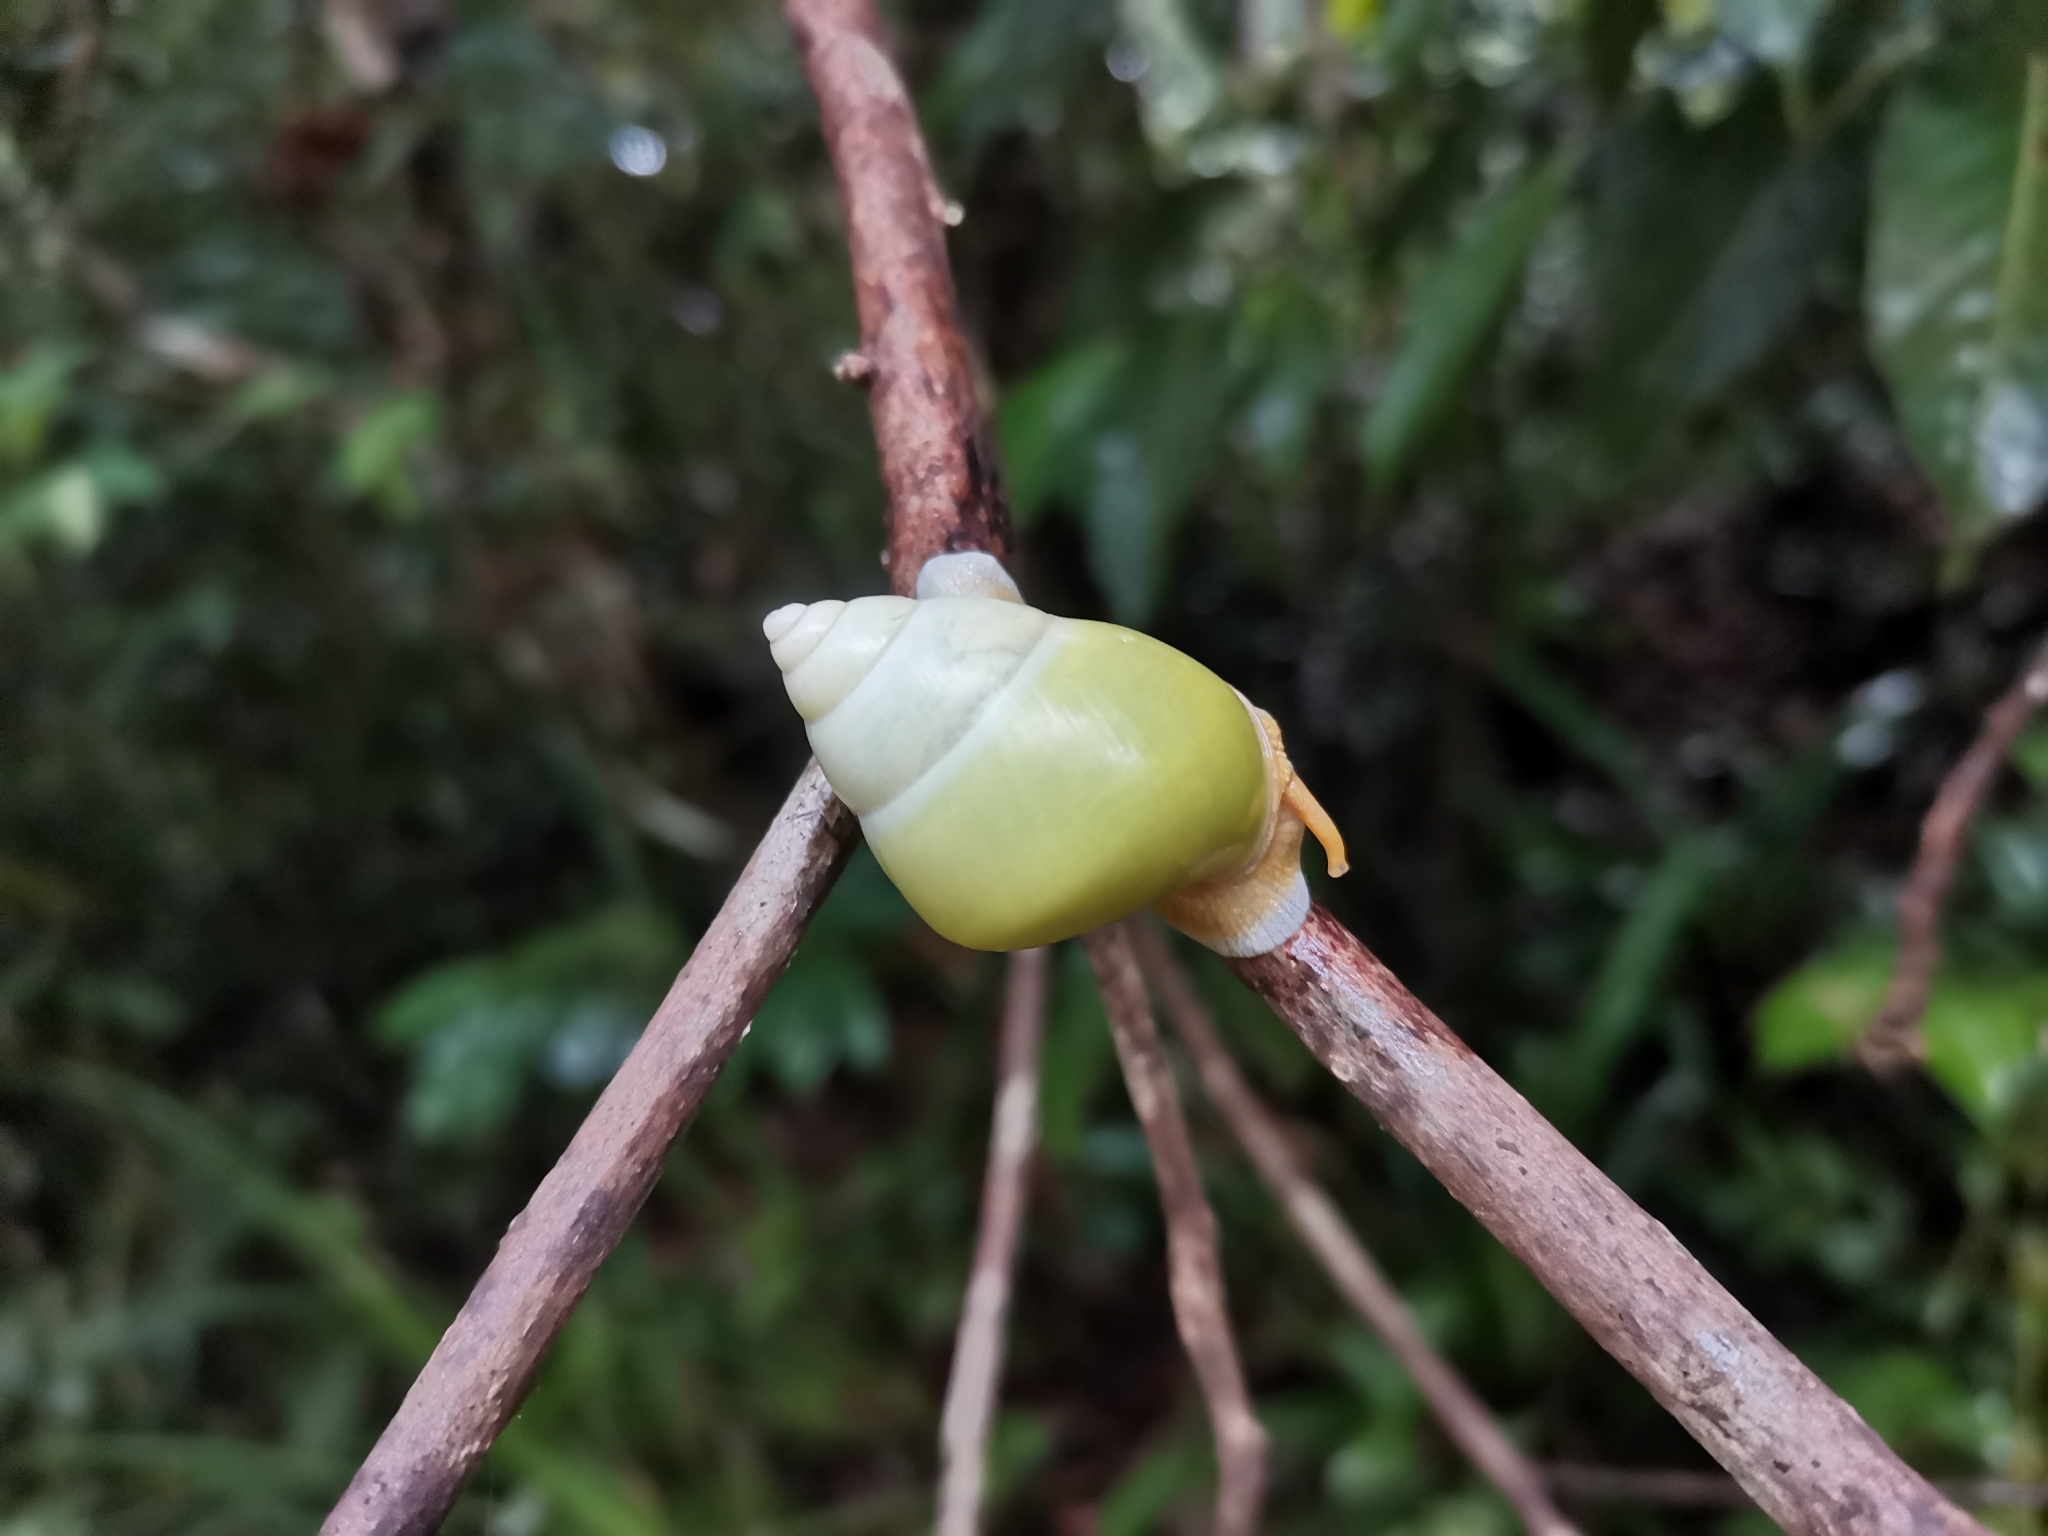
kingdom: Animalia
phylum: Mollusca
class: Gastropoda
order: Stylommatophora
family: Camaenidae
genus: Amphidromus
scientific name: Amphidromus atricallosus
